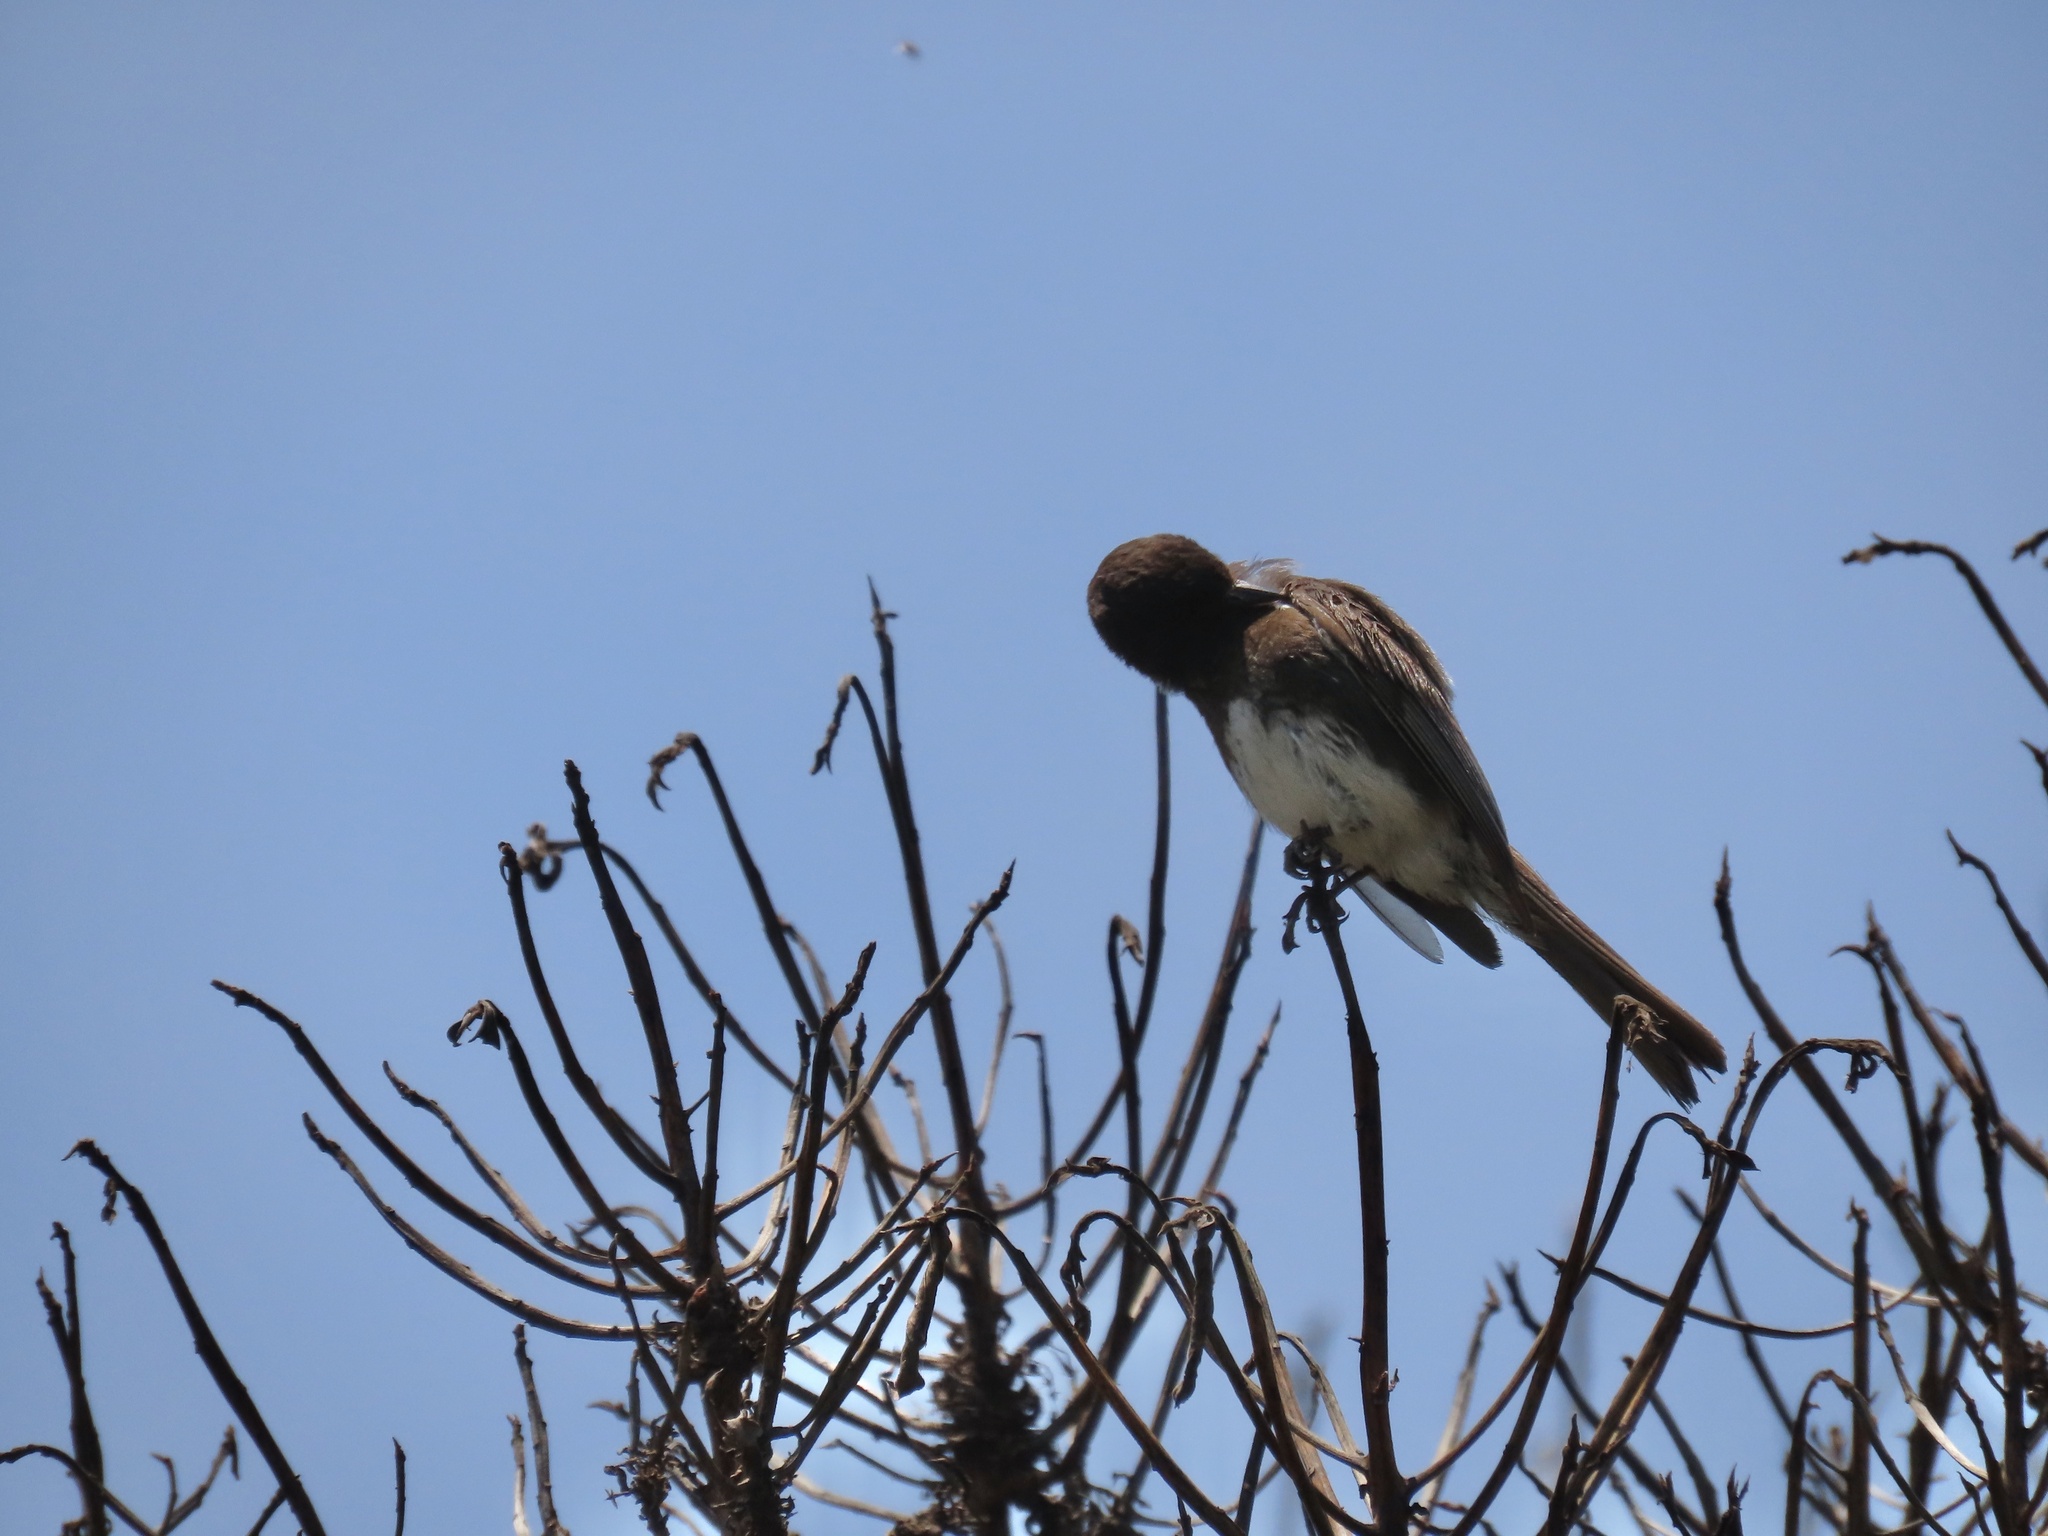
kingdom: Animalia
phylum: Chordata
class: Aves
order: Passeriformes
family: Tyrannidae
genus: Sayornis
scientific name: Sayornis nigricans
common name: Black phoebe
